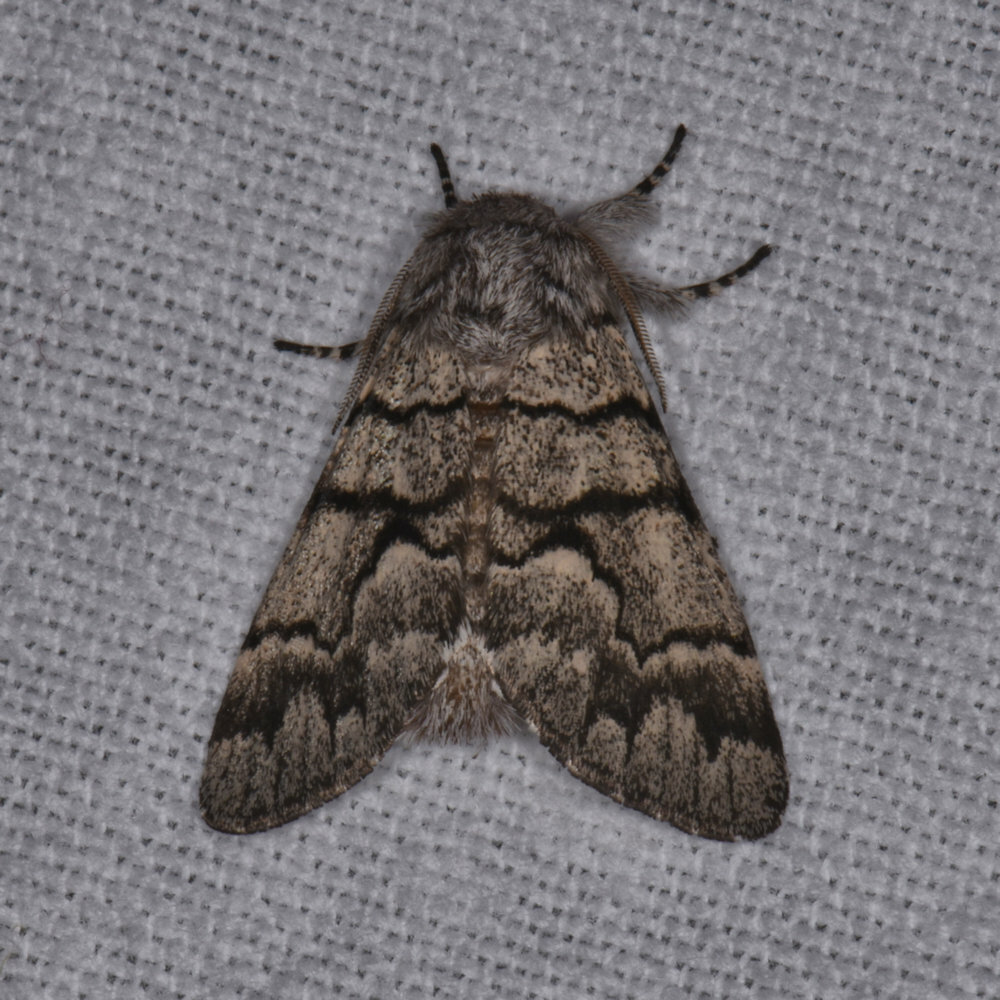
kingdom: Animalia
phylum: Arthropoda
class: Insecta
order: Lepidoptera
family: Noctuidae
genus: Panthea
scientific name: Panthea furcilla
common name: Eastern panthea moth
